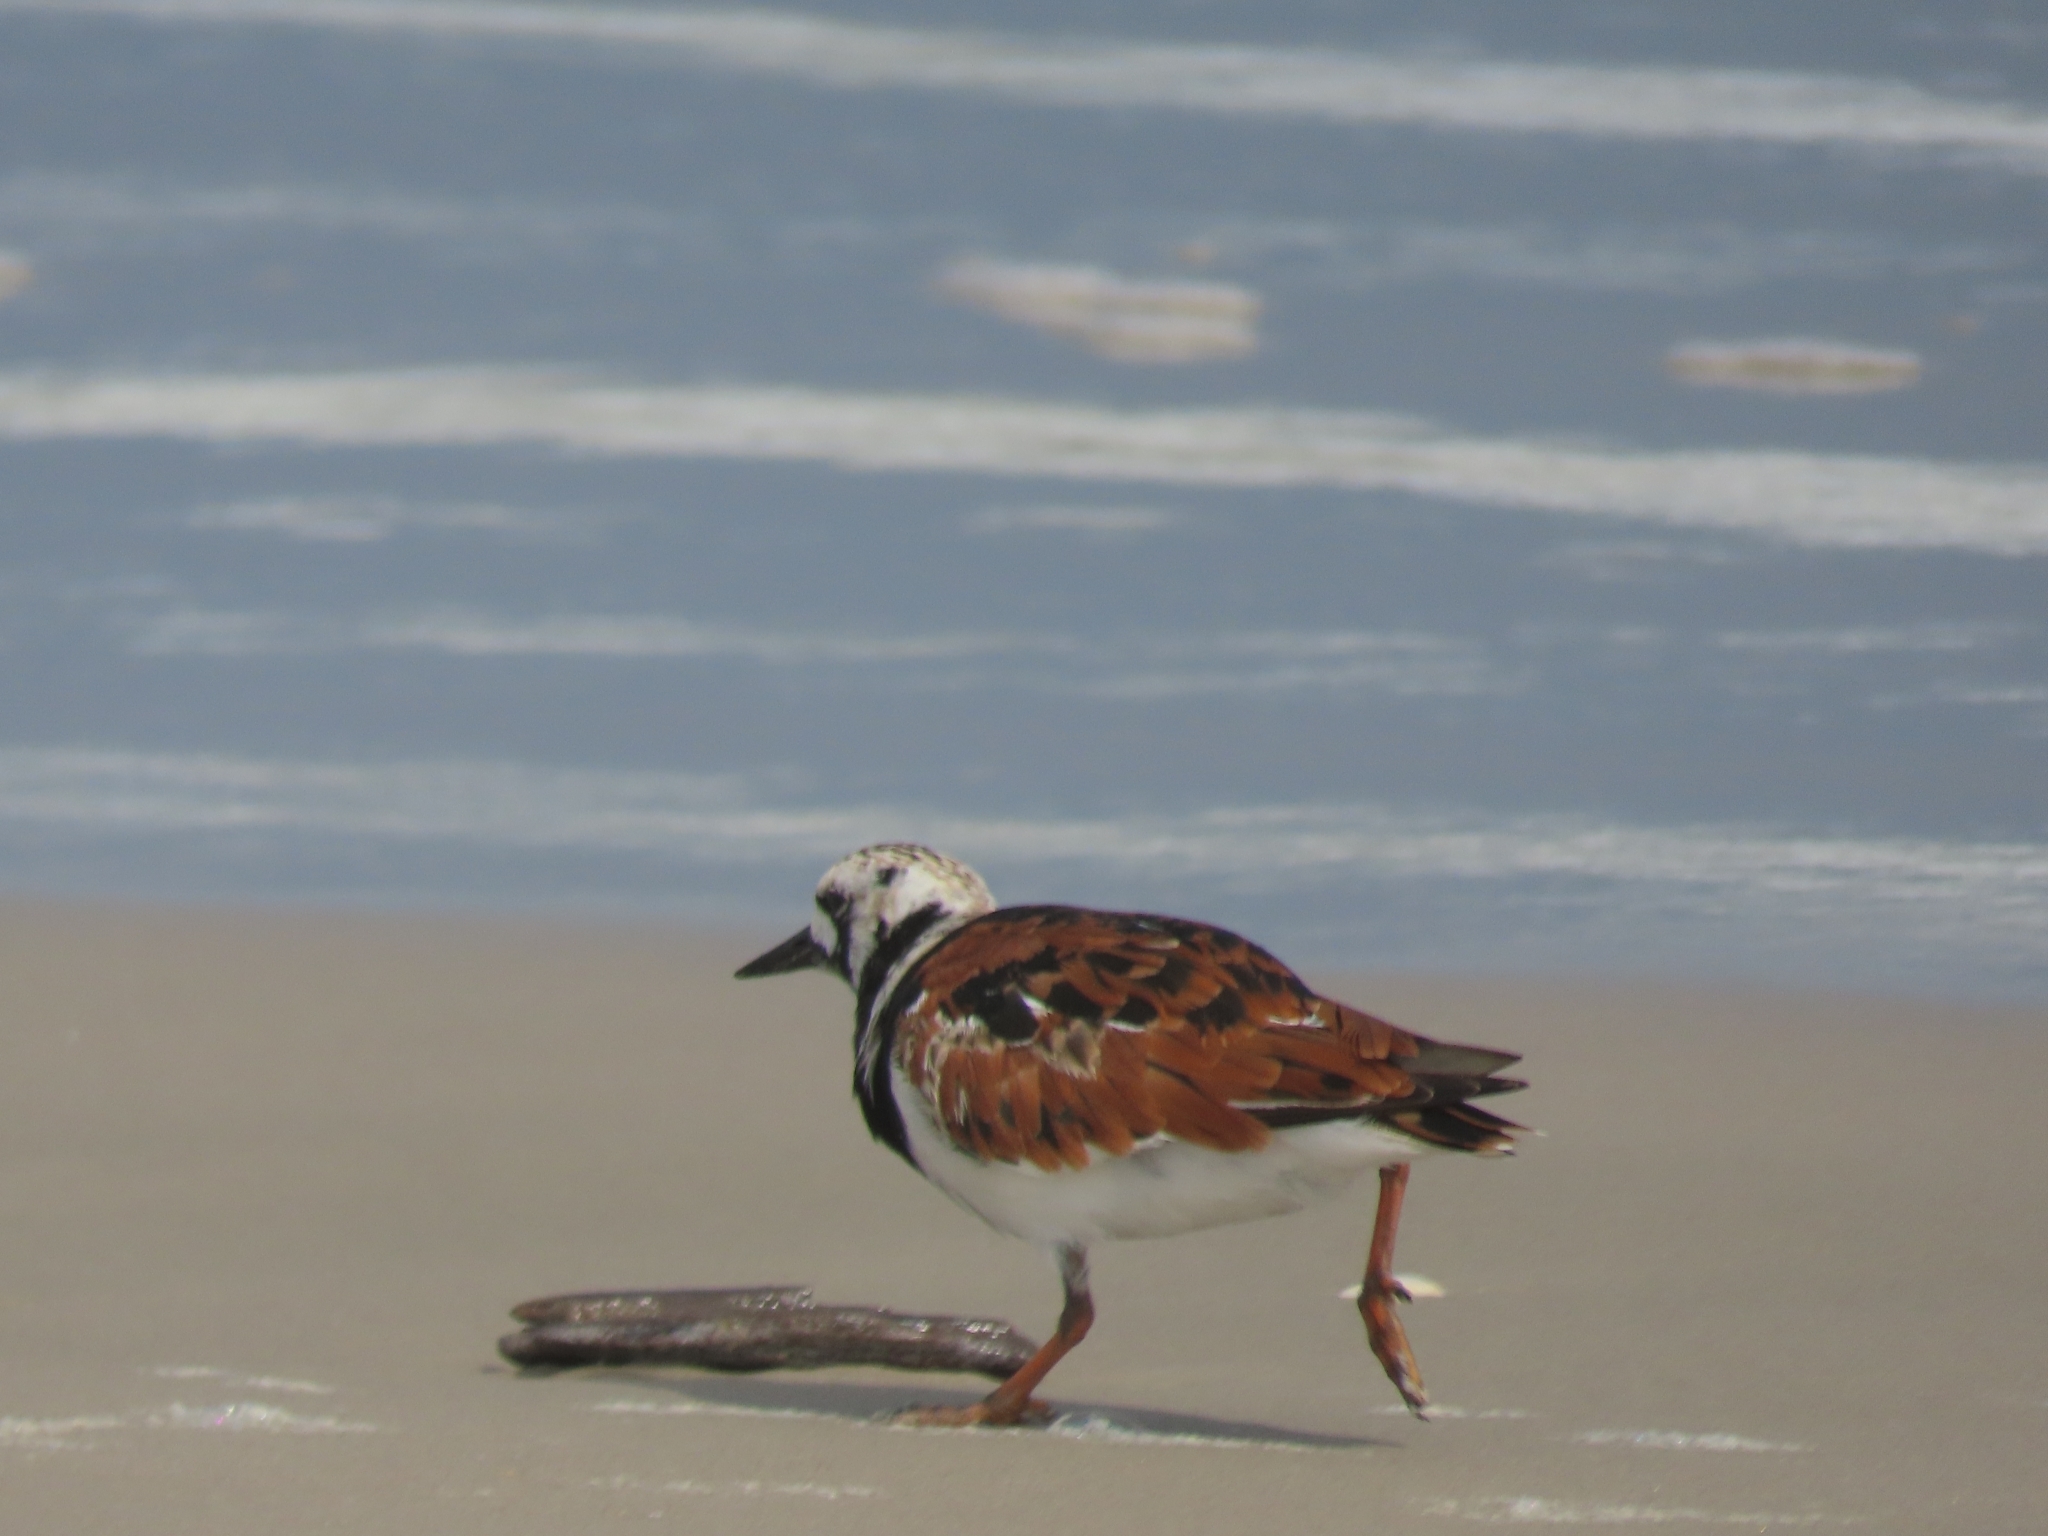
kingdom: Animalia
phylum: Chordata
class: Aves
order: Charadriiformes
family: Scolopacidae
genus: Arenaria
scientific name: Arenaria interpres
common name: Ruddy turnstone
